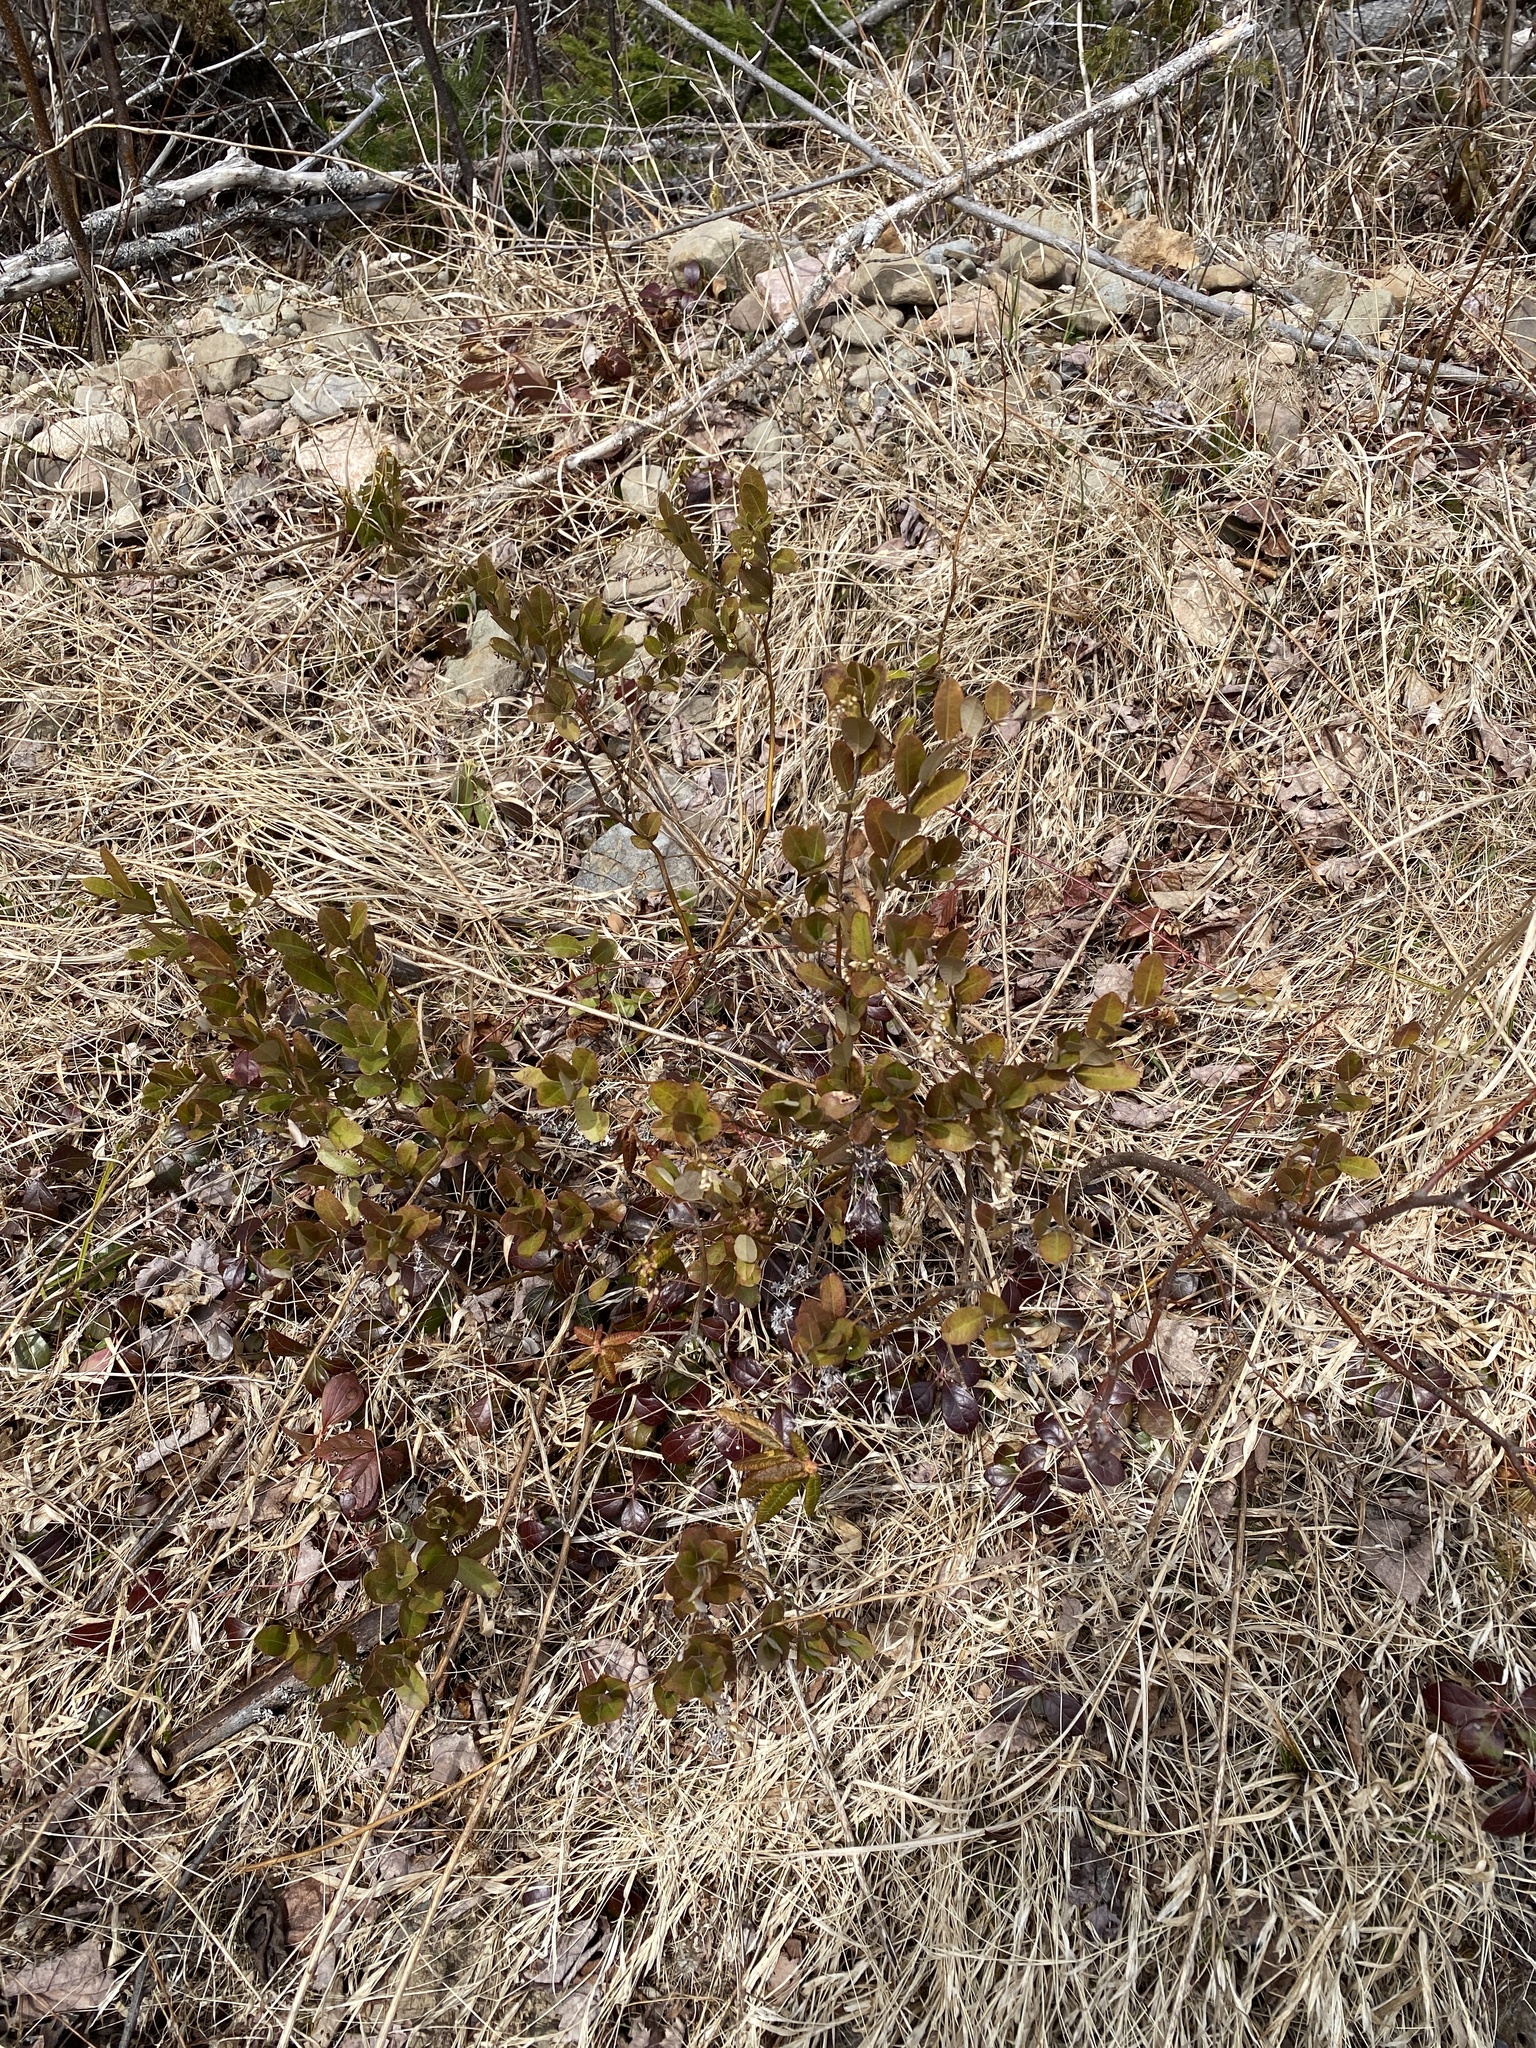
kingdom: Plantae
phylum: Tracheophyta
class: Magnoliopsida
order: Ericales
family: Ericaceae
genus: Chamaedaphne
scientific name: Chamaedaphne calyculata
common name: Leatherleaf
